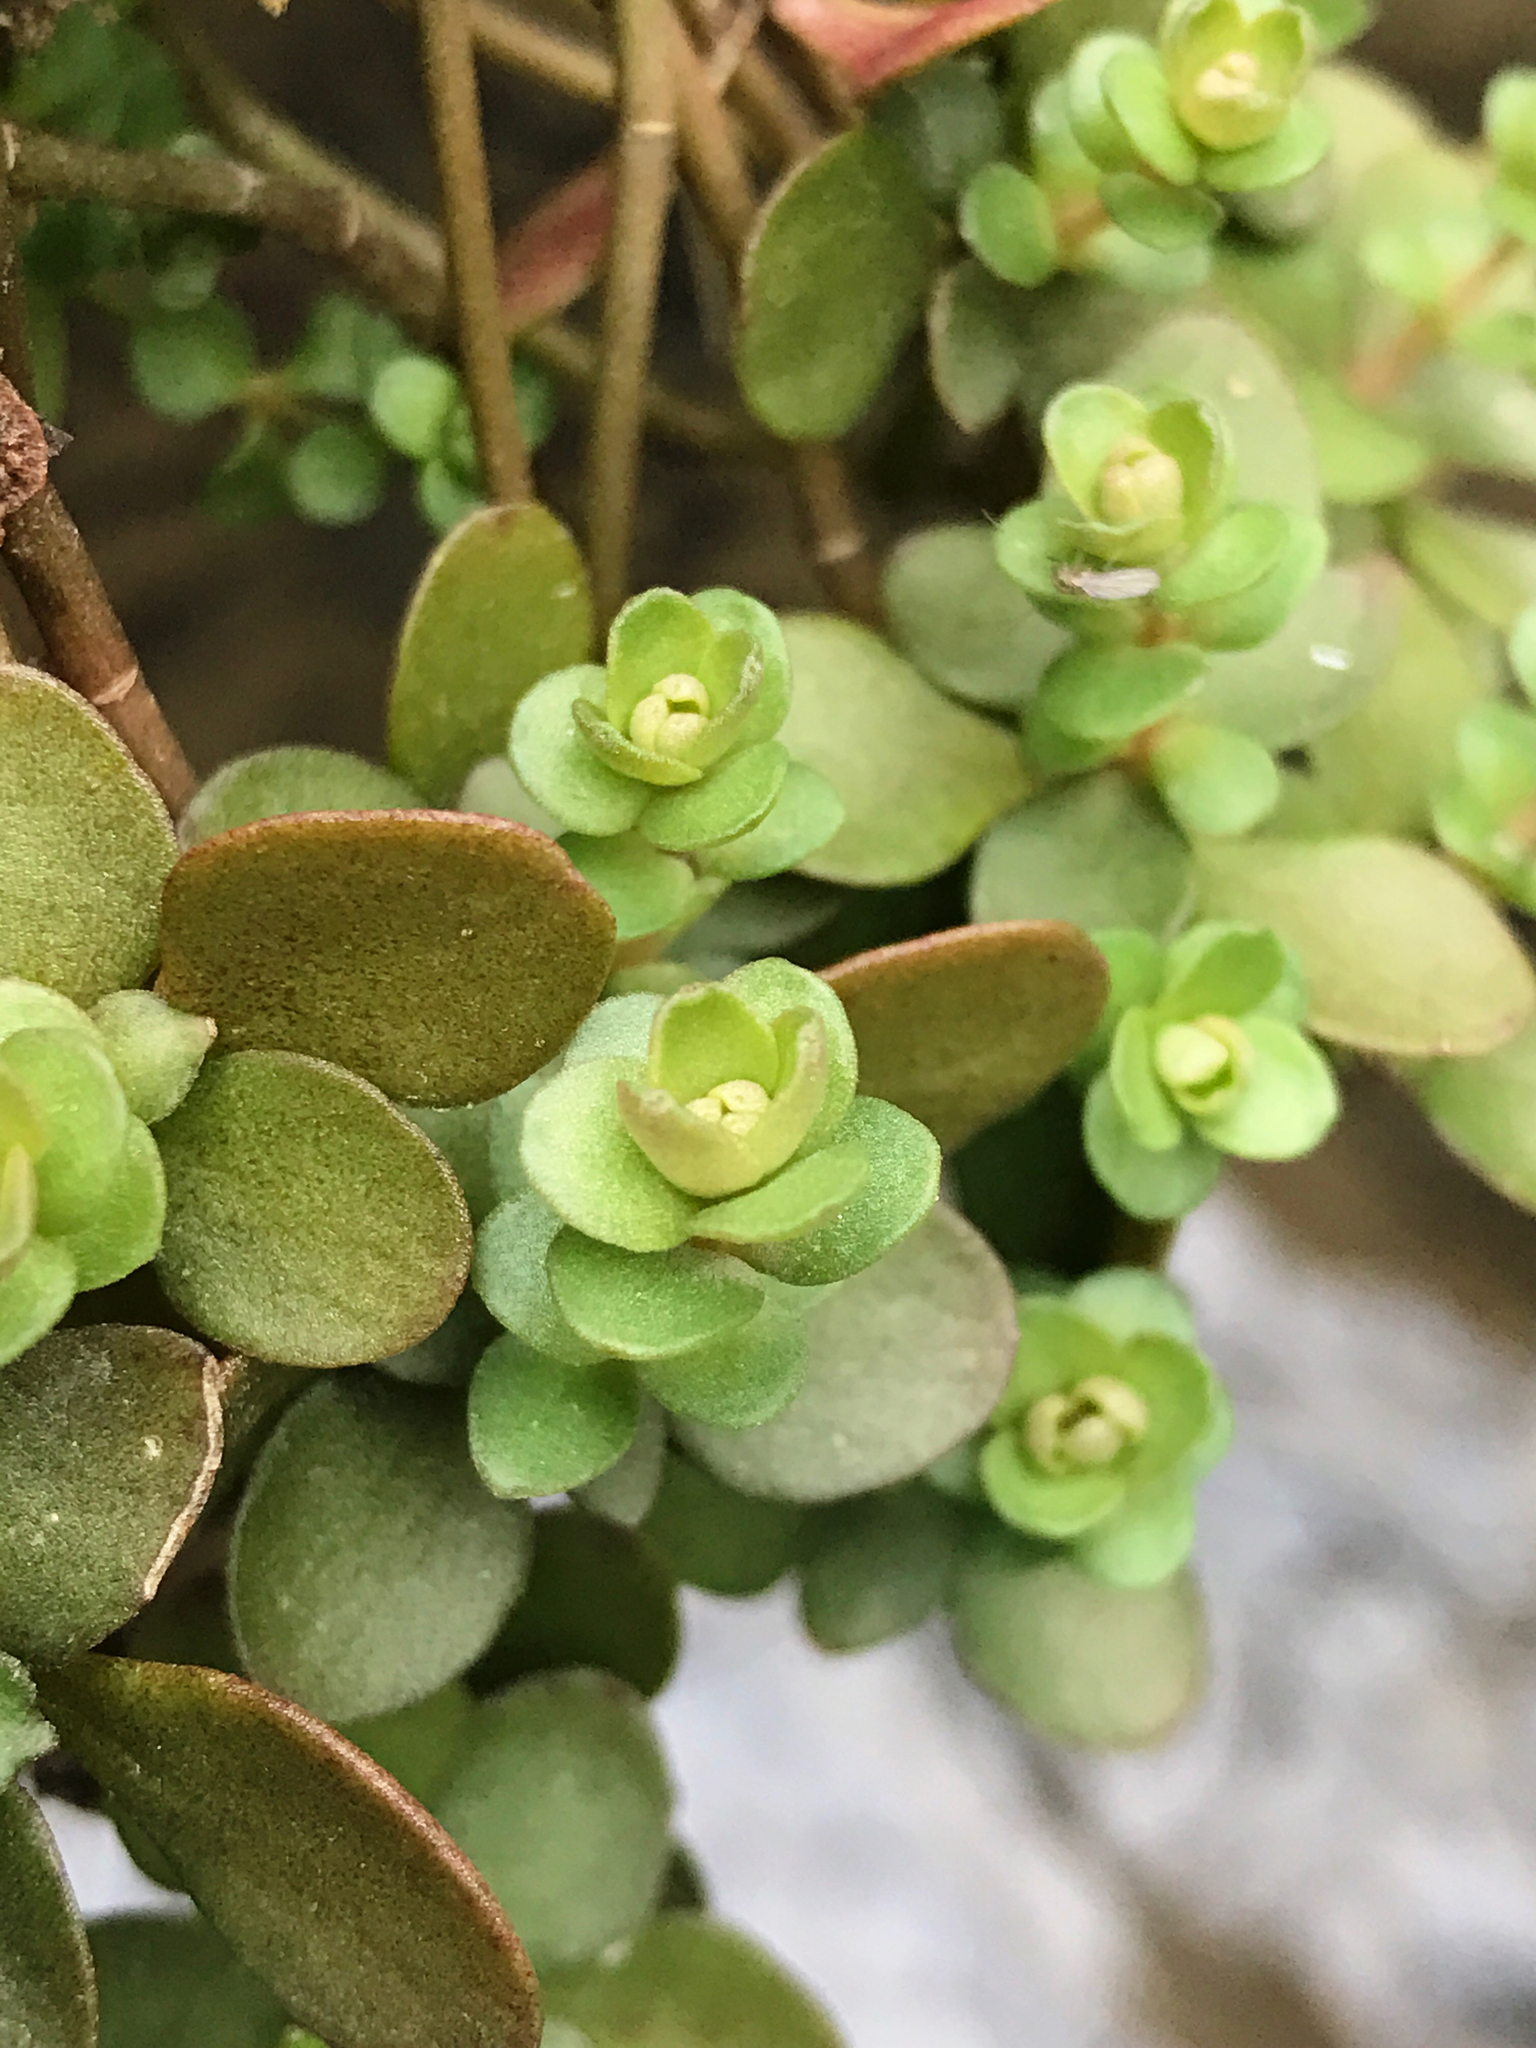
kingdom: Plantae
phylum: Tracheophyta
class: Magnoliopsida
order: Saxifragales
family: Crassulaceae
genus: Sedum
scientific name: Sedum ternatum
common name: Wild stonecrop
